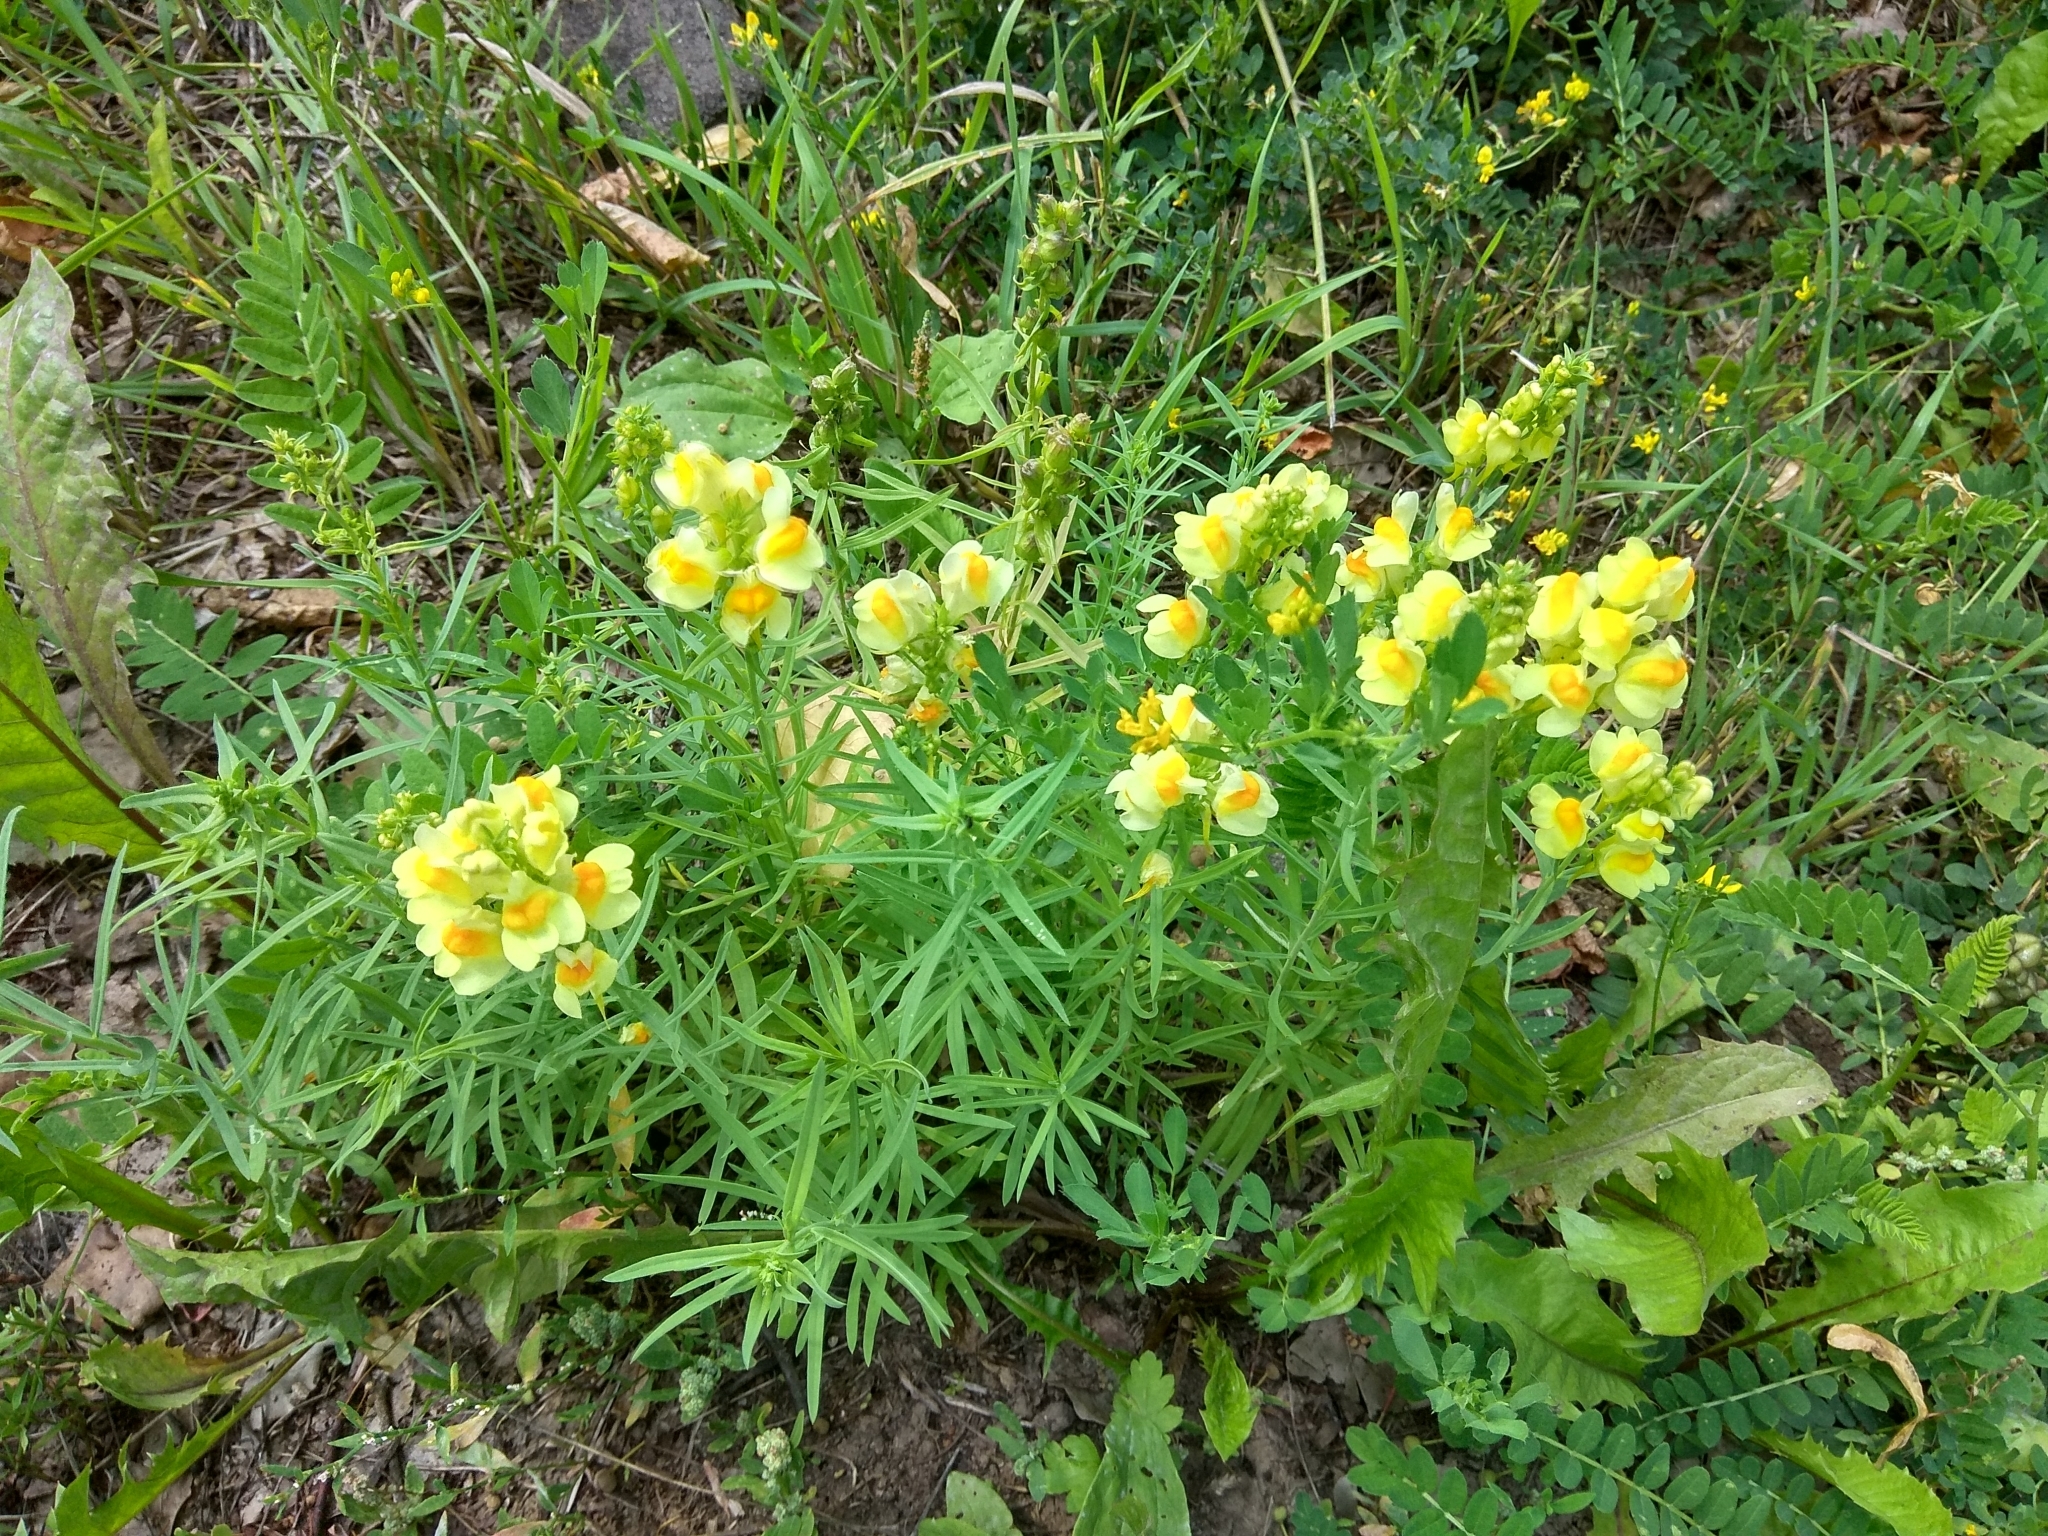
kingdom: Plantae
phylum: Tracheophyta
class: Magnoliopsida
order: Lamiales
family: Plantaginaceae
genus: Linaria
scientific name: Linaria vulgaris
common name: Butter and eggs
